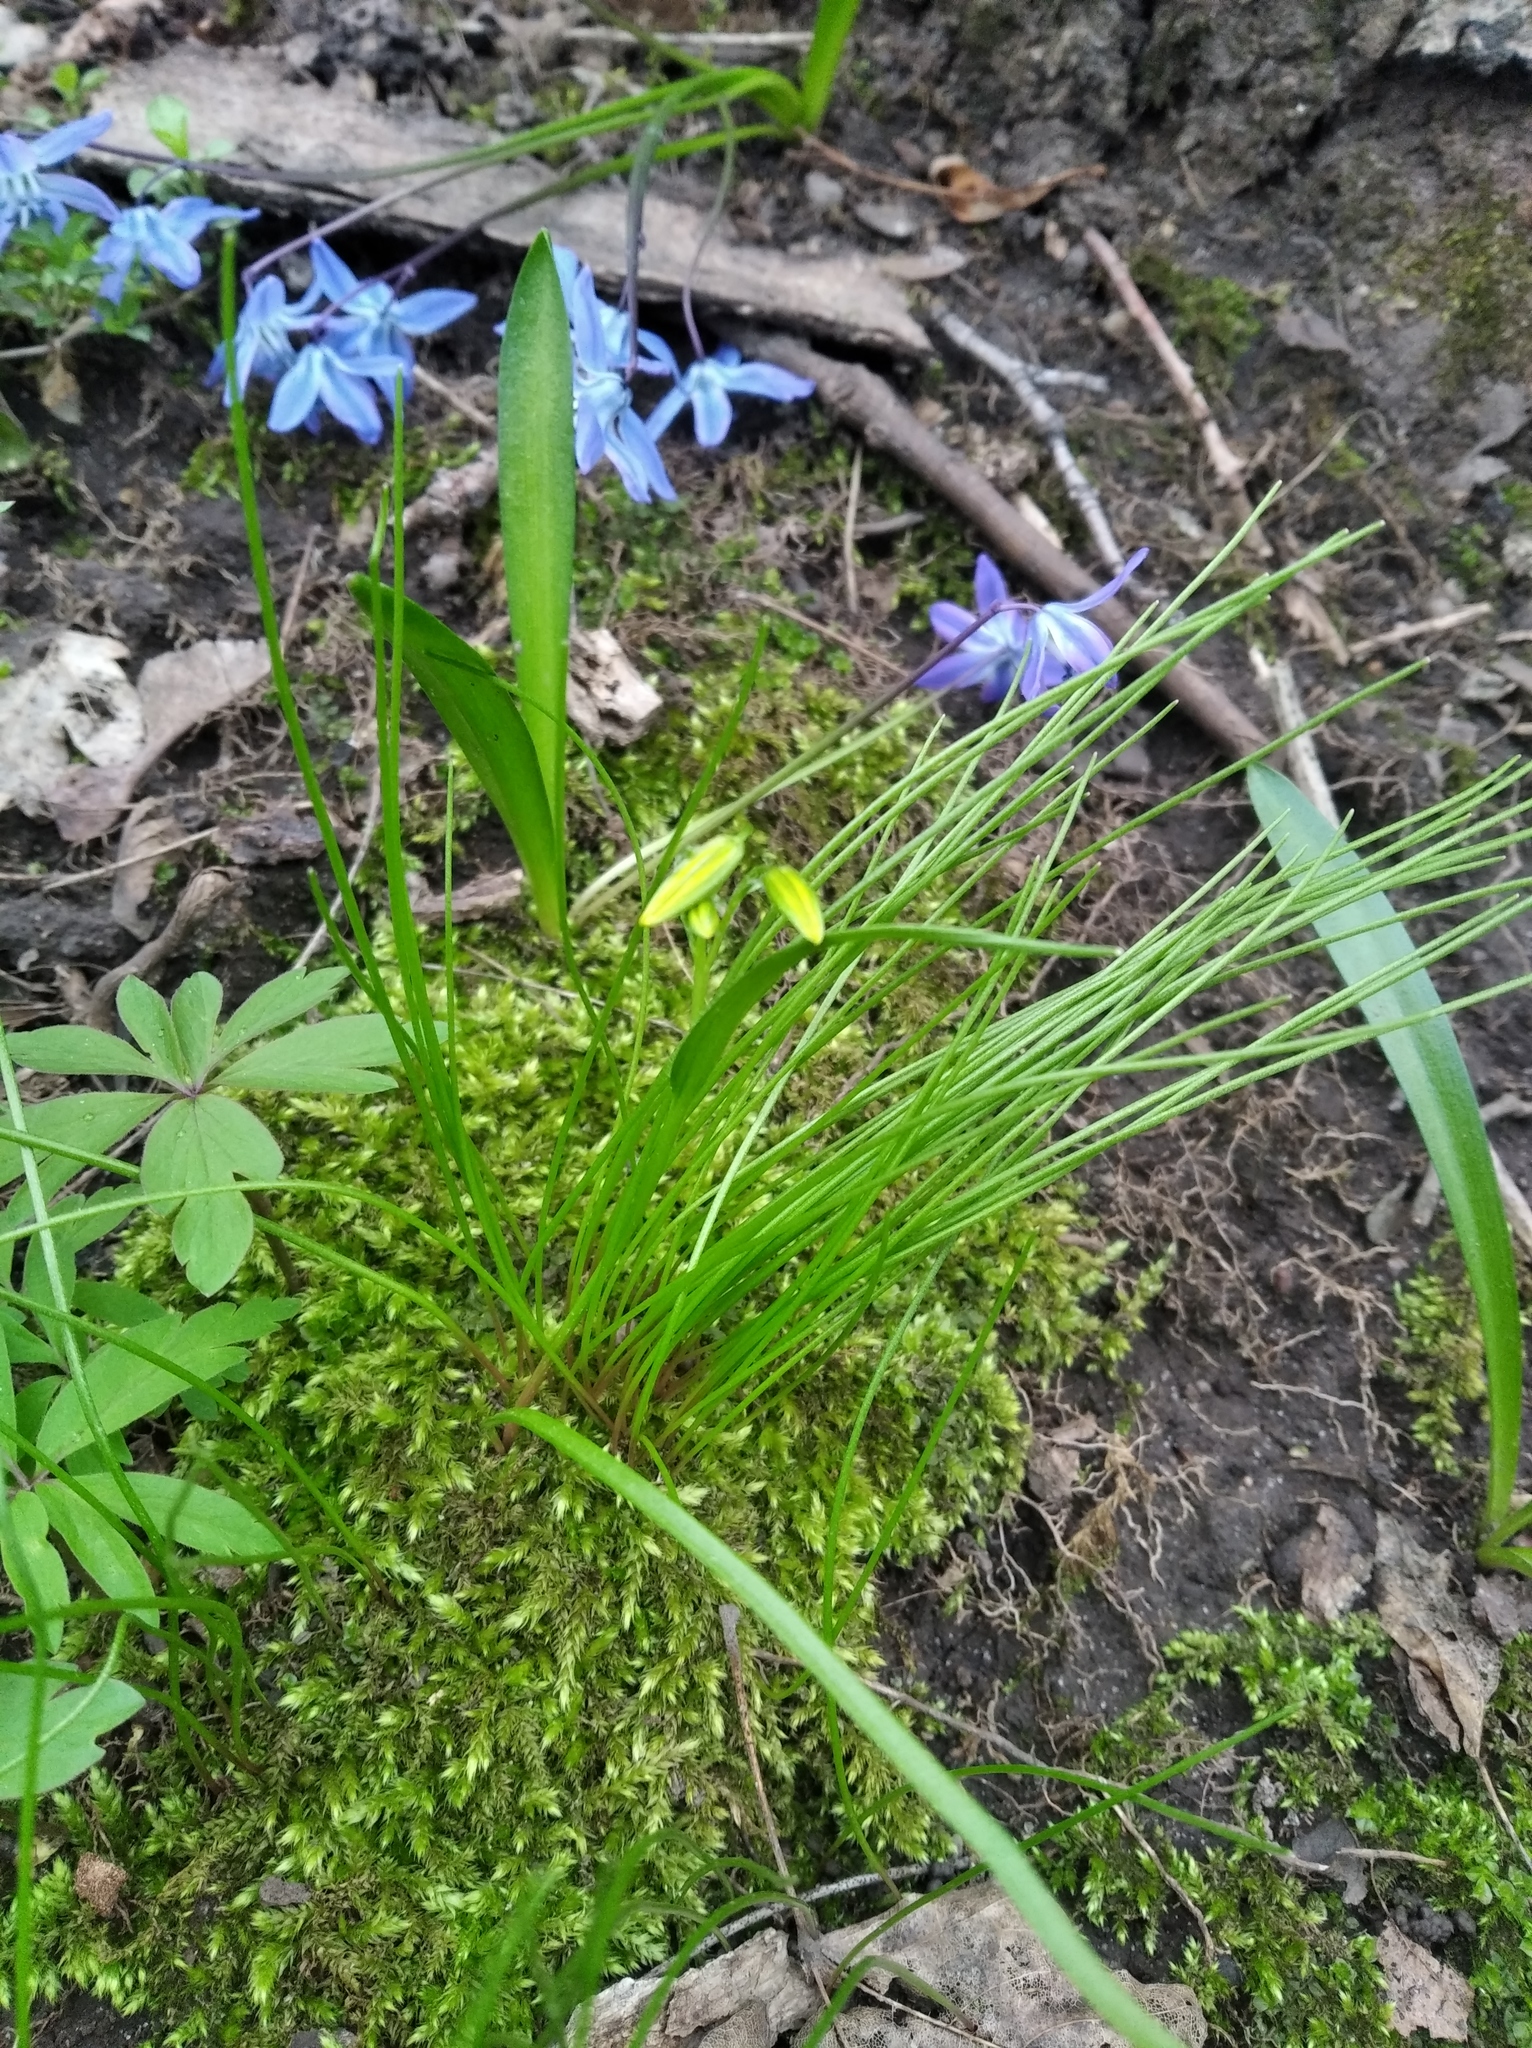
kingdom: Plantae
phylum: Tracheophyta
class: Liliopsida
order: Liliales
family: Liliaceae
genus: Gagea
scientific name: Gagea minima
